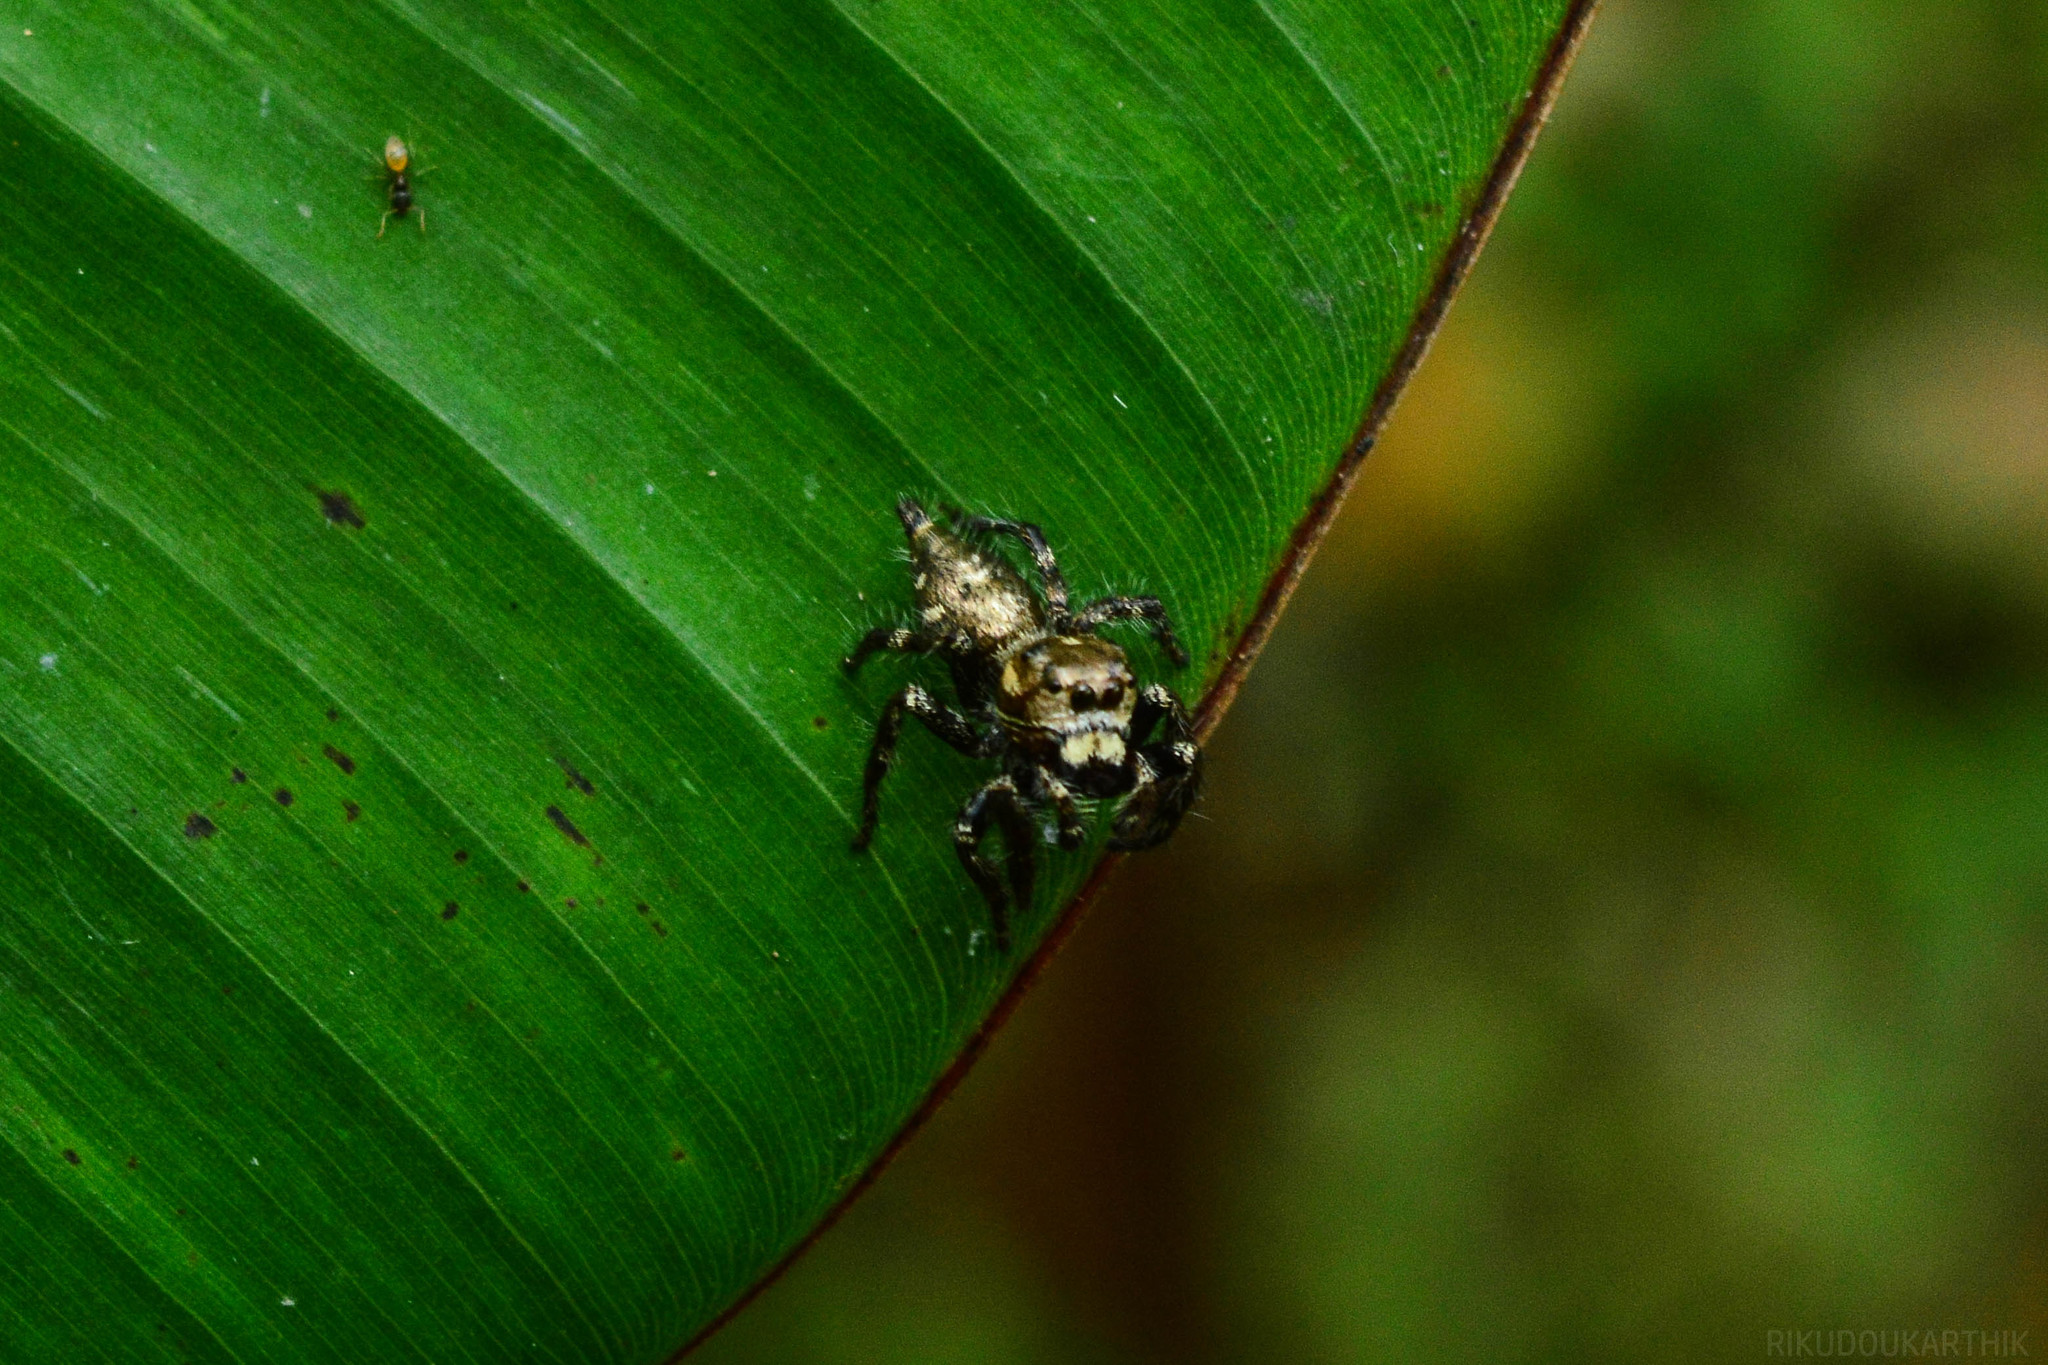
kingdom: Animalia
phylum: Arthropoda
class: Arachnida
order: Araneae
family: Salticidae
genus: Hyllus
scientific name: Hyllus semicupreus
